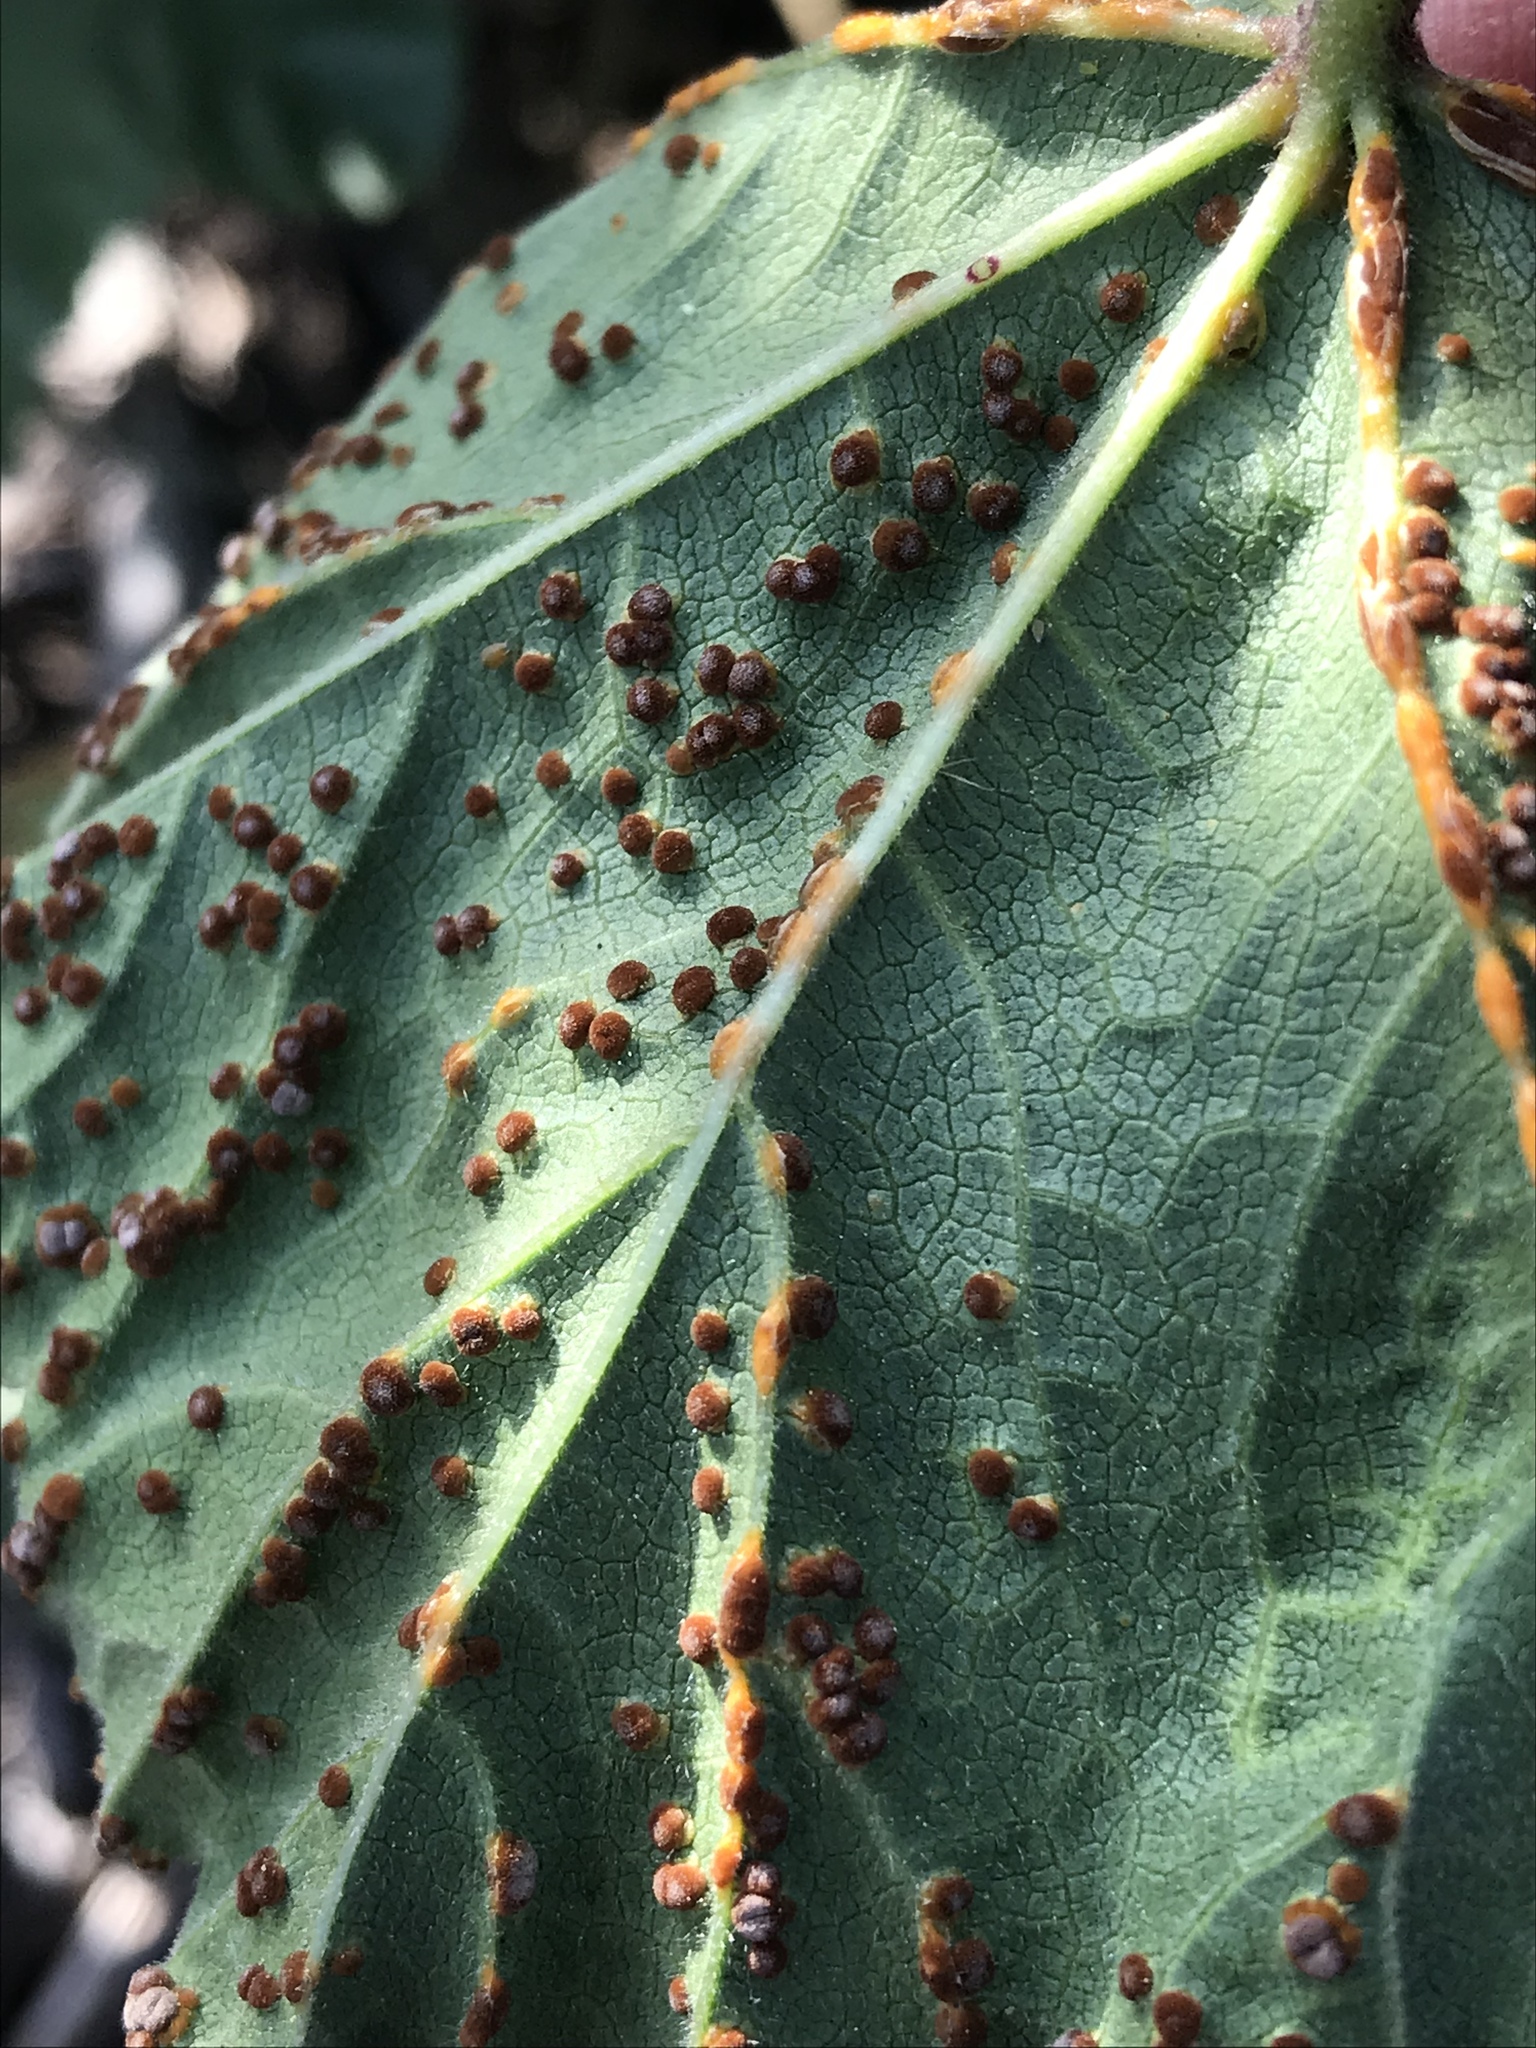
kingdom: Fungi
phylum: Basidiomycota
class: Pucciniomycetes
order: Pucciniales
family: Pucciniaceae
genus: Puccinia
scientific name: Puccinia malvacearum
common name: Hollyhock rust
